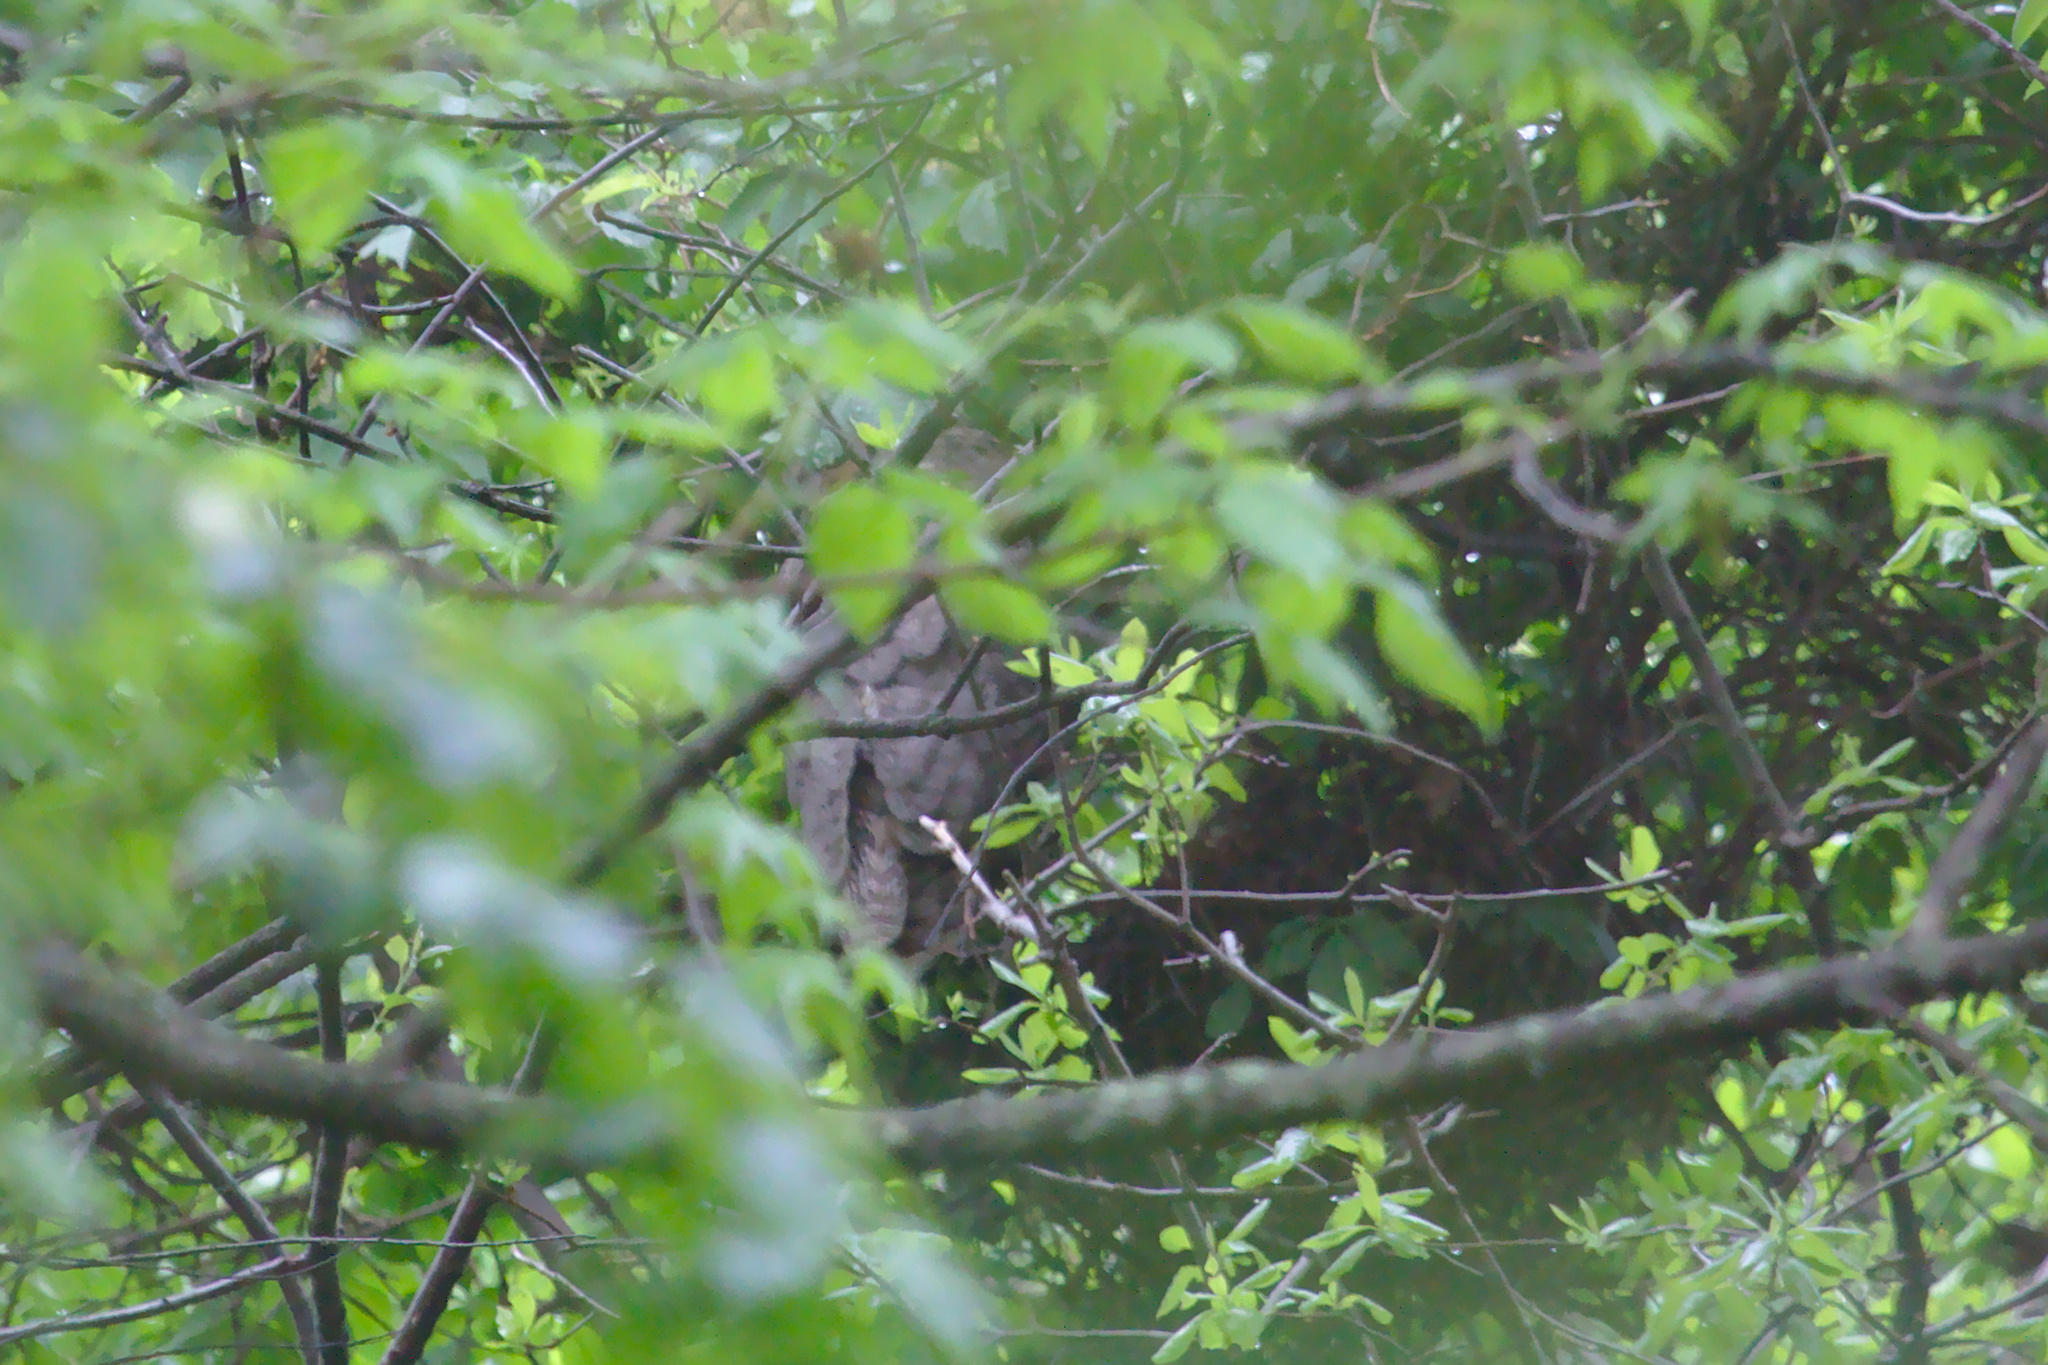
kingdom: Animalia
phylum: Chordata
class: Aves
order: Strigiformes
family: Strigidae
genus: Bubo
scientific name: Bubo virginianus
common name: Great horned owl
